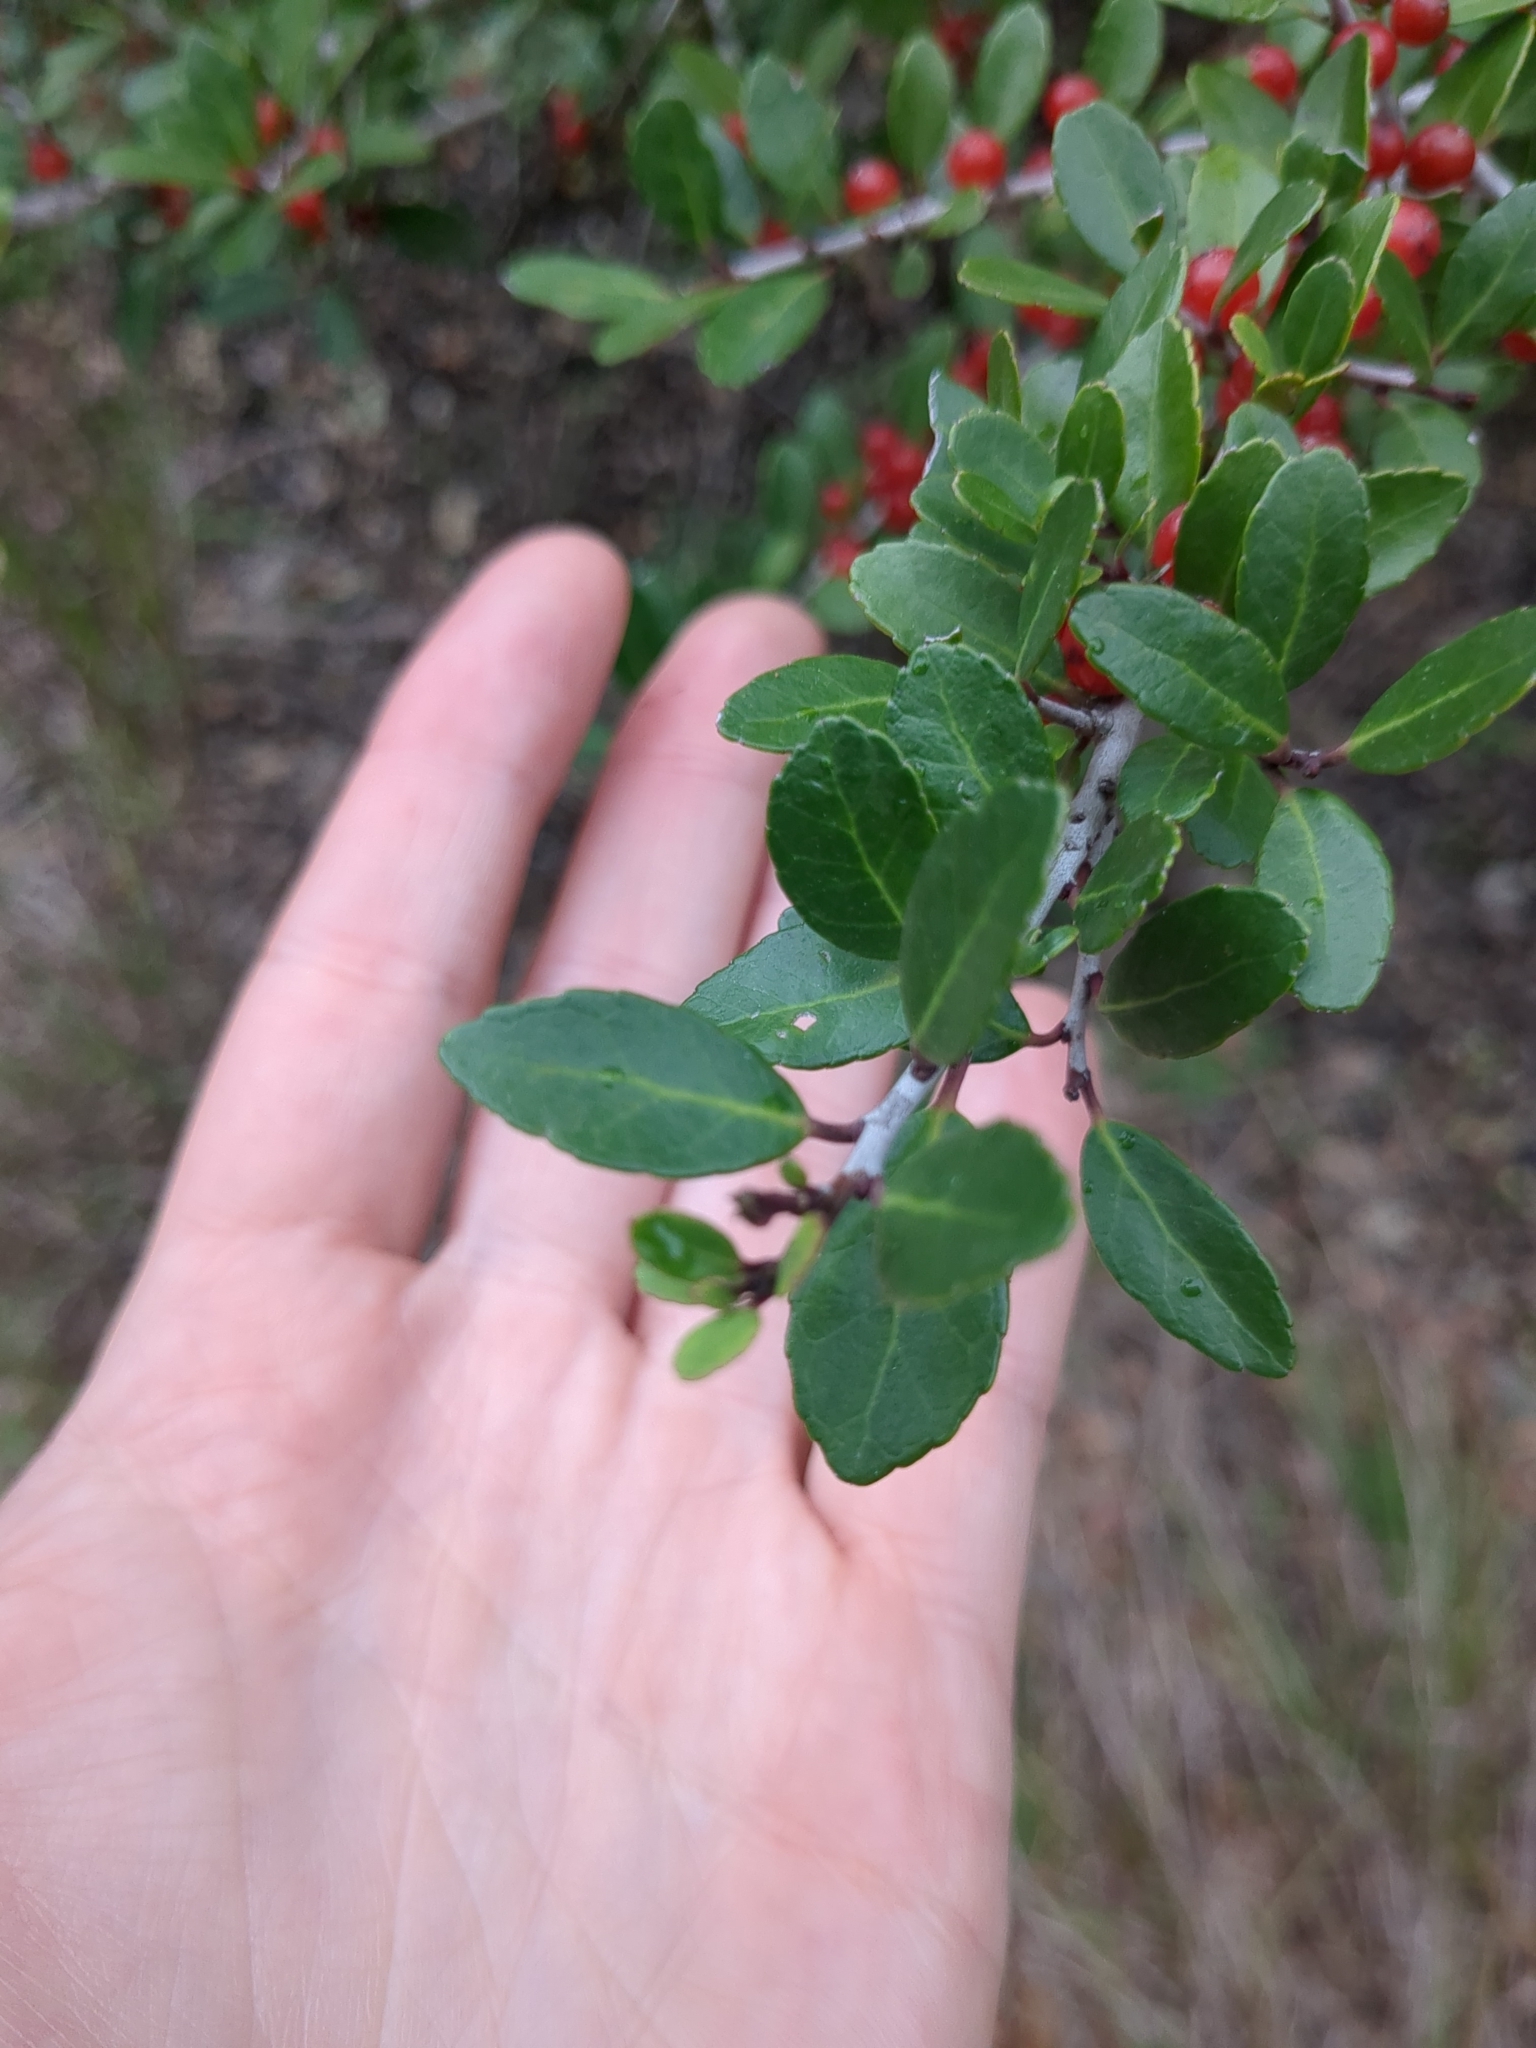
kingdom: Plantae
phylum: Tracheophyta
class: Magnoliopsida
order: Aquifoliales
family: Aquifoliaceae
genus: Ilex
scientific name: Ilex vomitoria
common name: Yaupon holly
